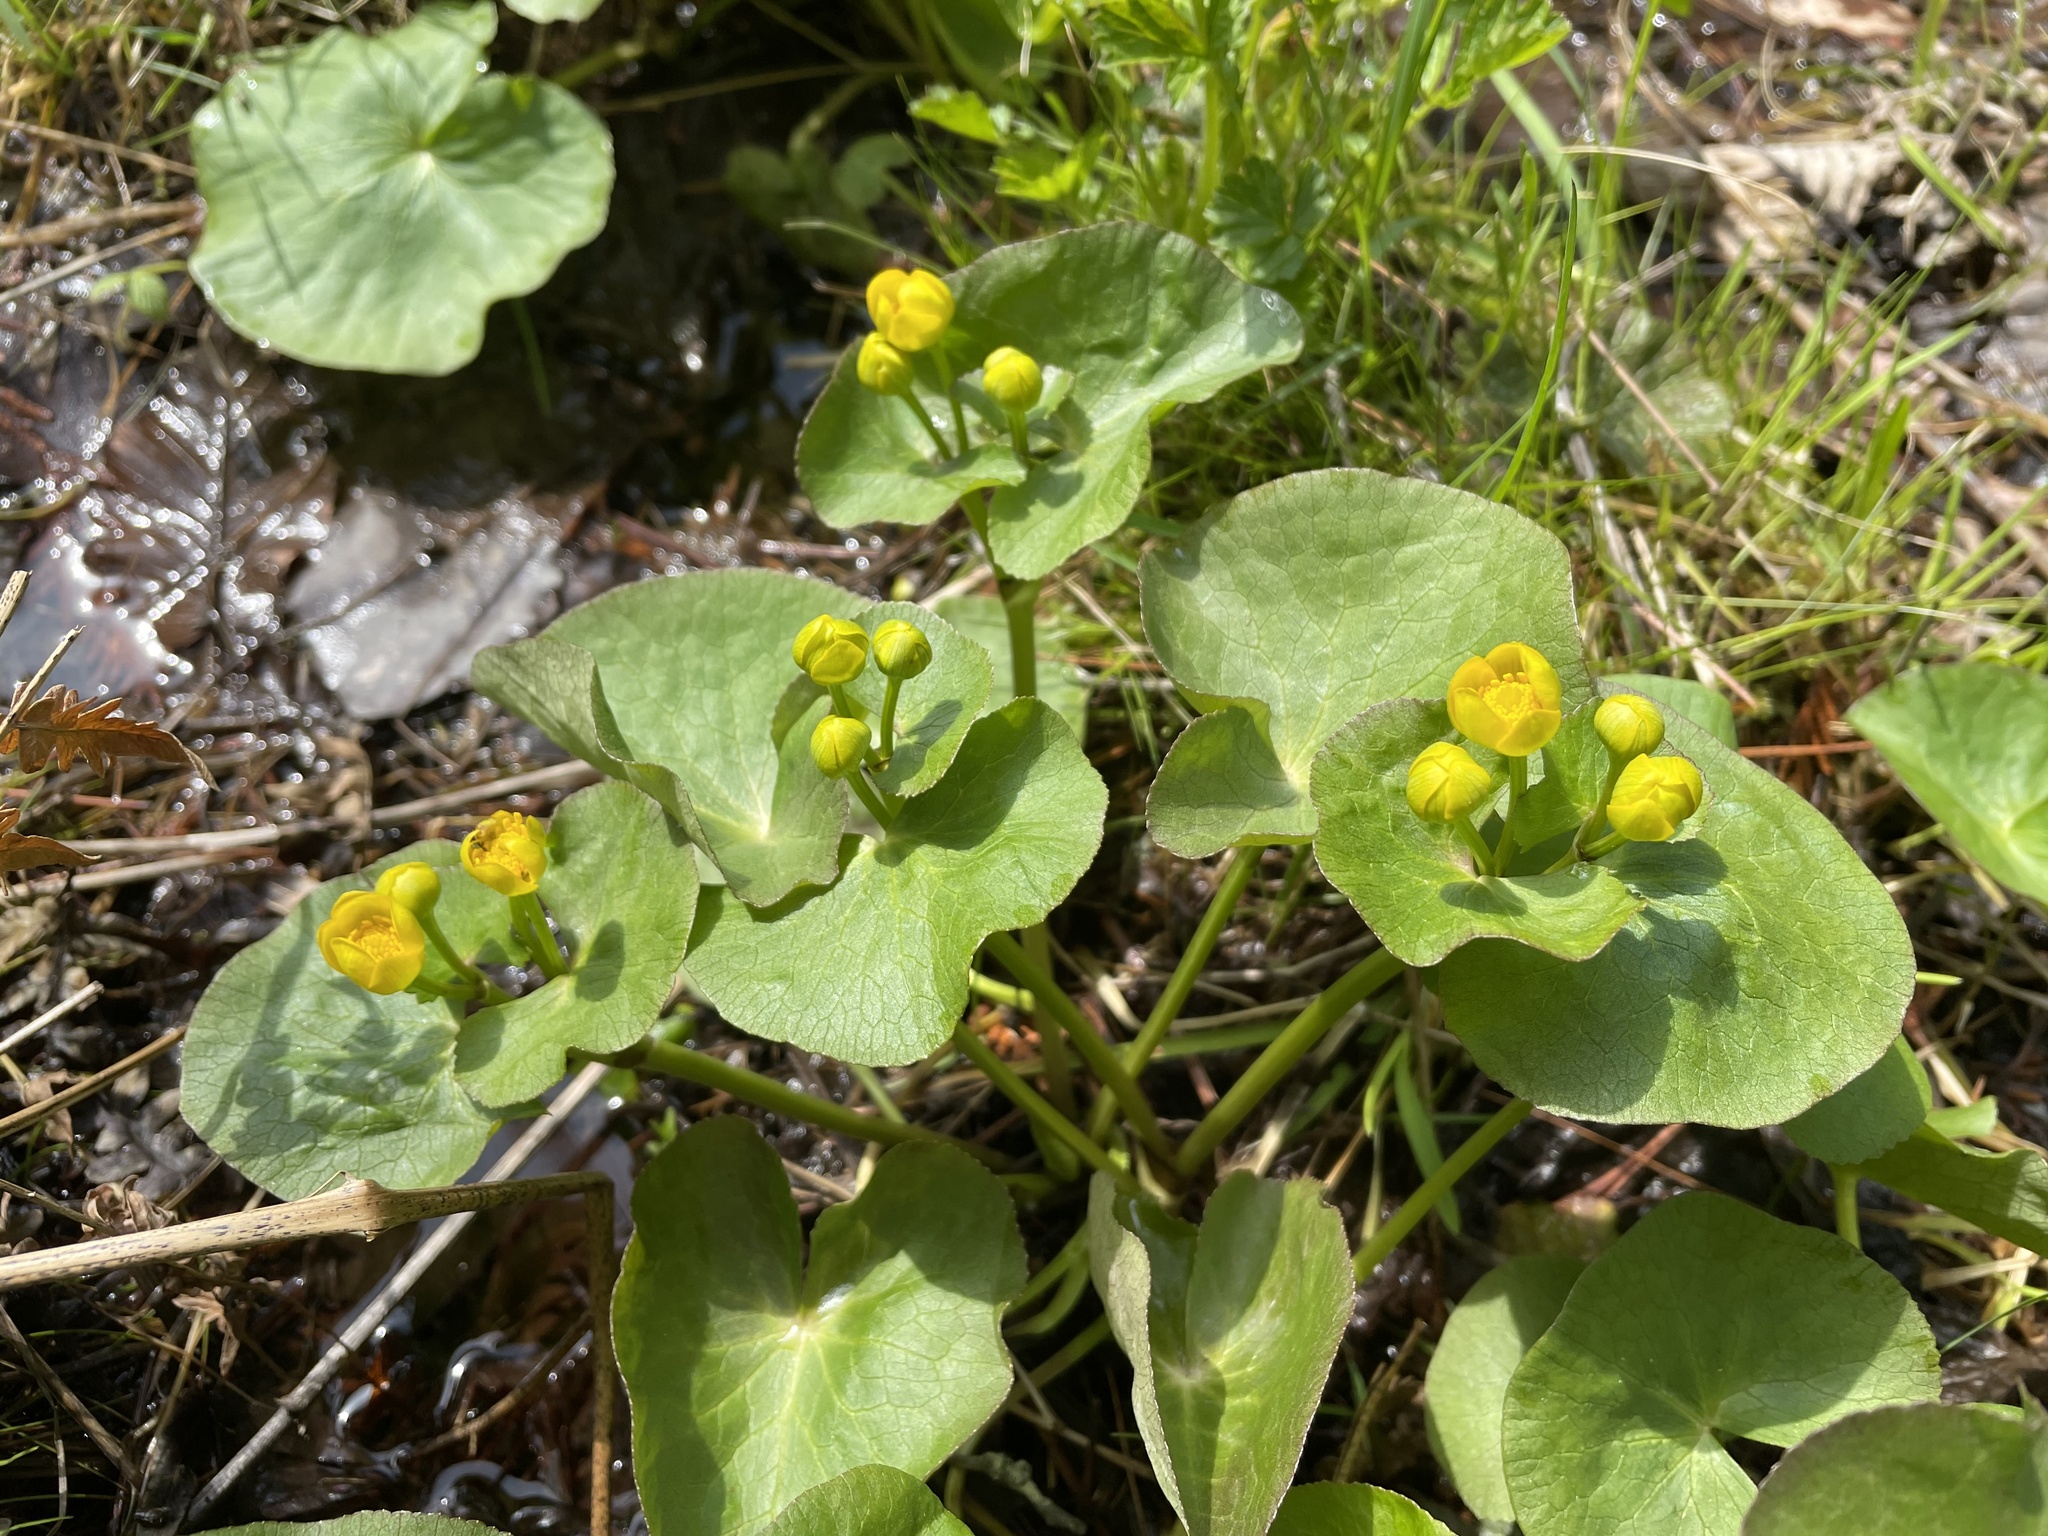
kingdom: Plantae
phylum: Tracheophyta
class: Magnoliopsida
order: Ranunculales
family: Ranunculaceae
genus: Caltha
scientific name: Caltha palustris
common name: Marsh marigold
